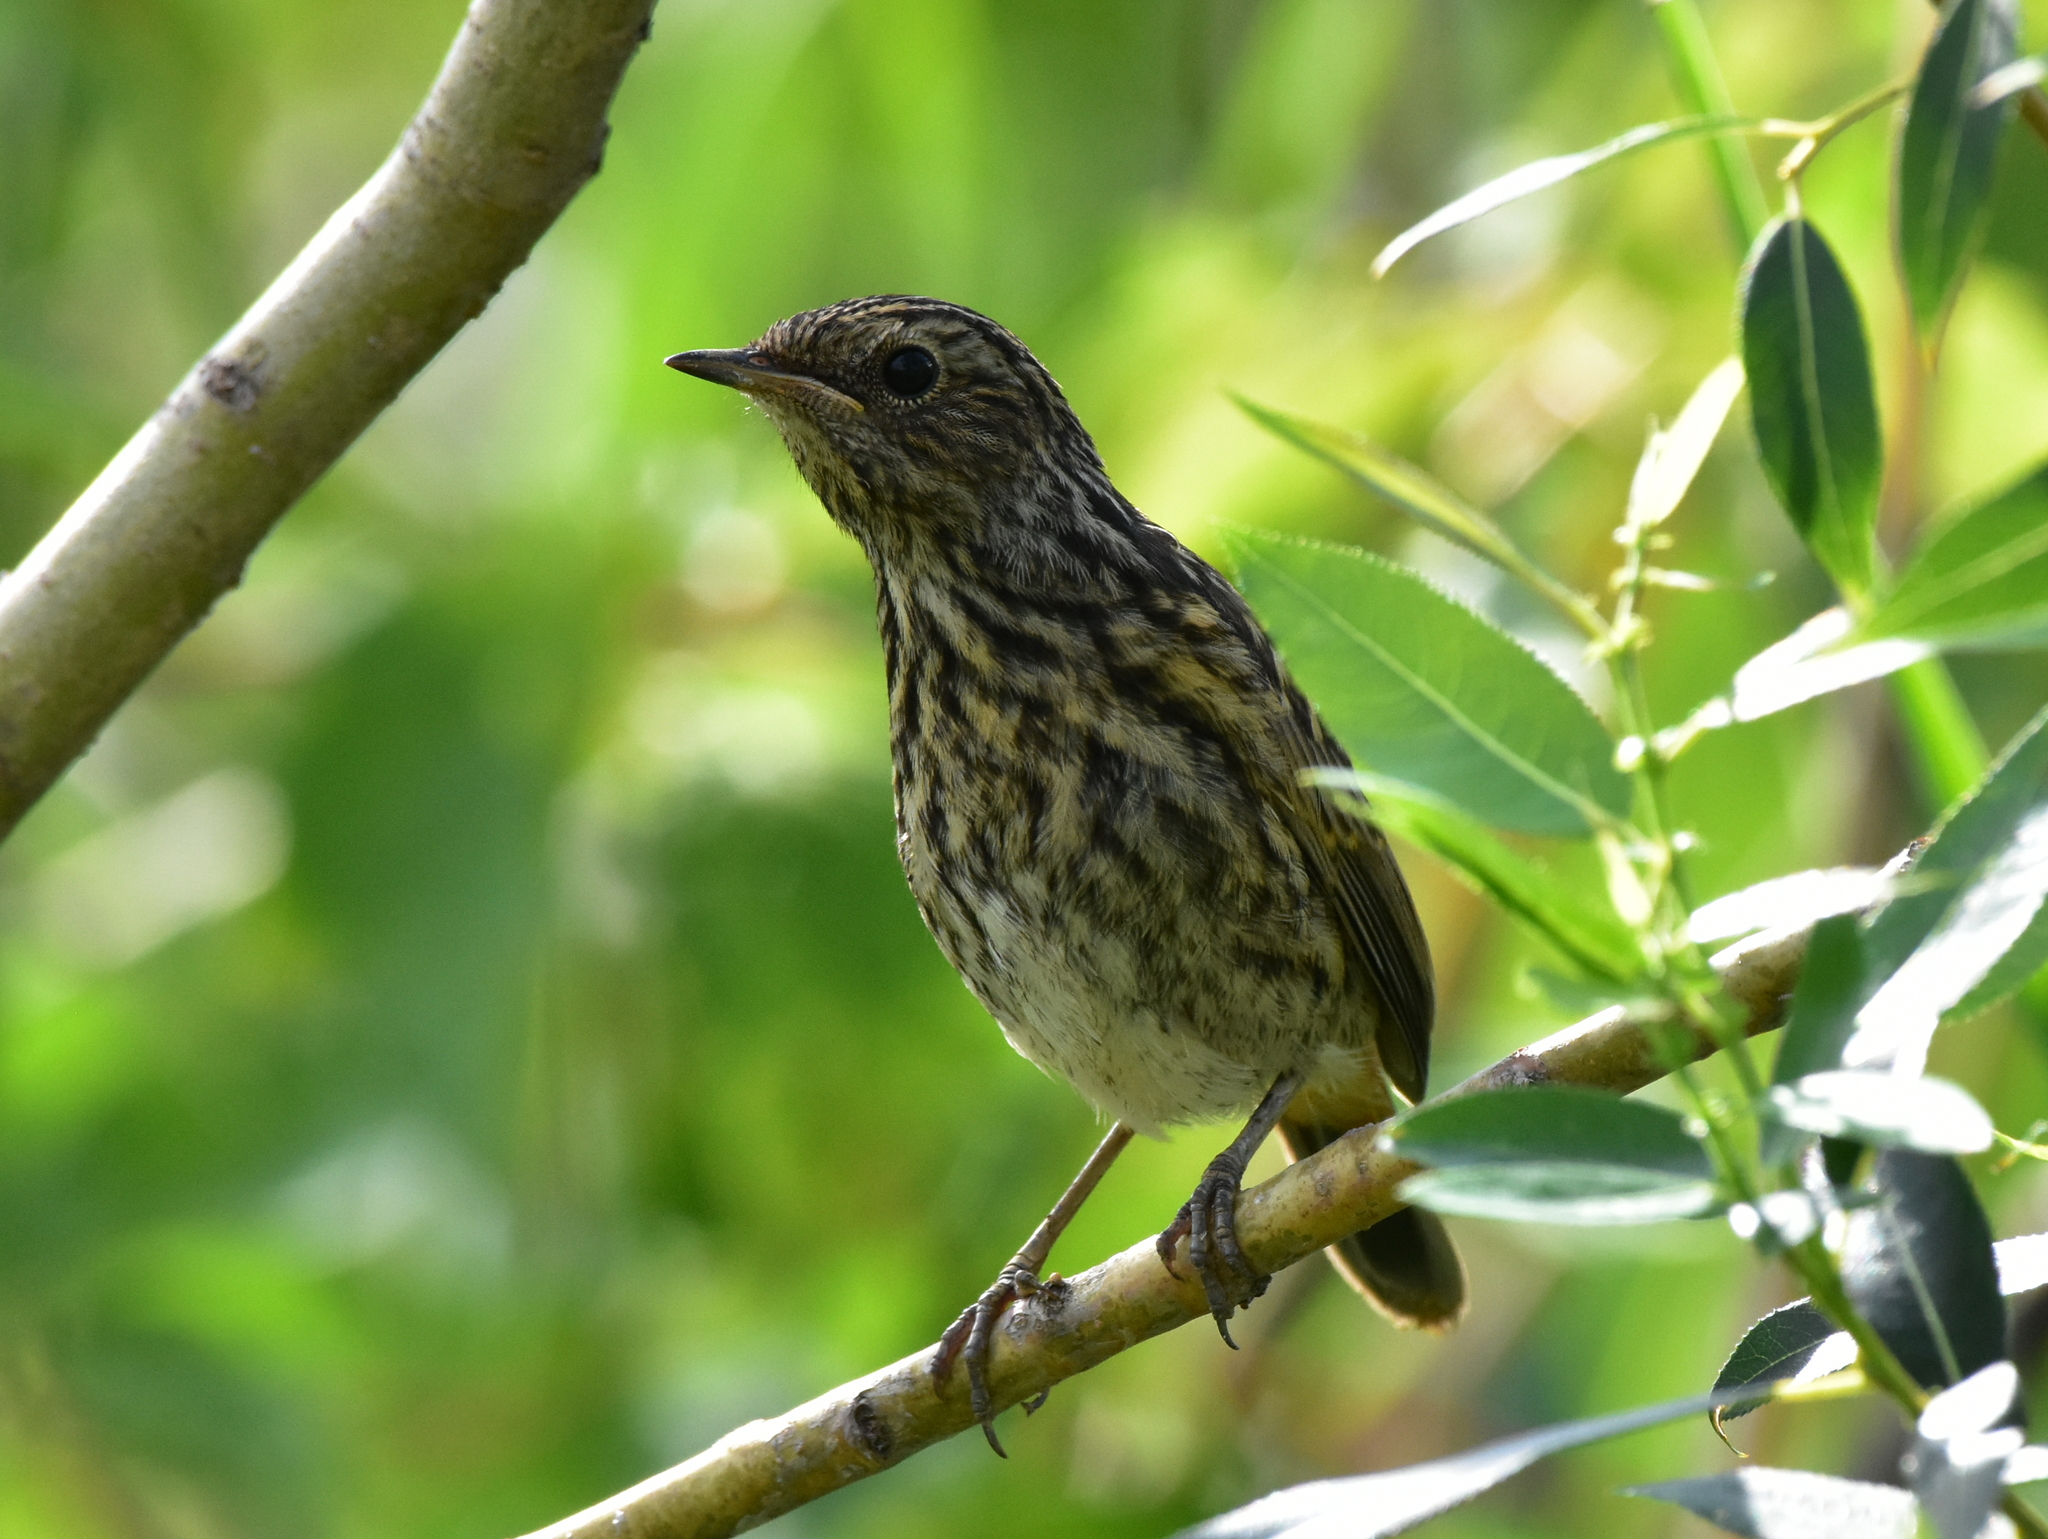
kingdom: Animalia
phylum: Chordata
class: Aves
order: Passeriformes
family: Muscicapidae
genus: Luscinia
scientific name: Luscinia svecica
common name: Bluethroat
